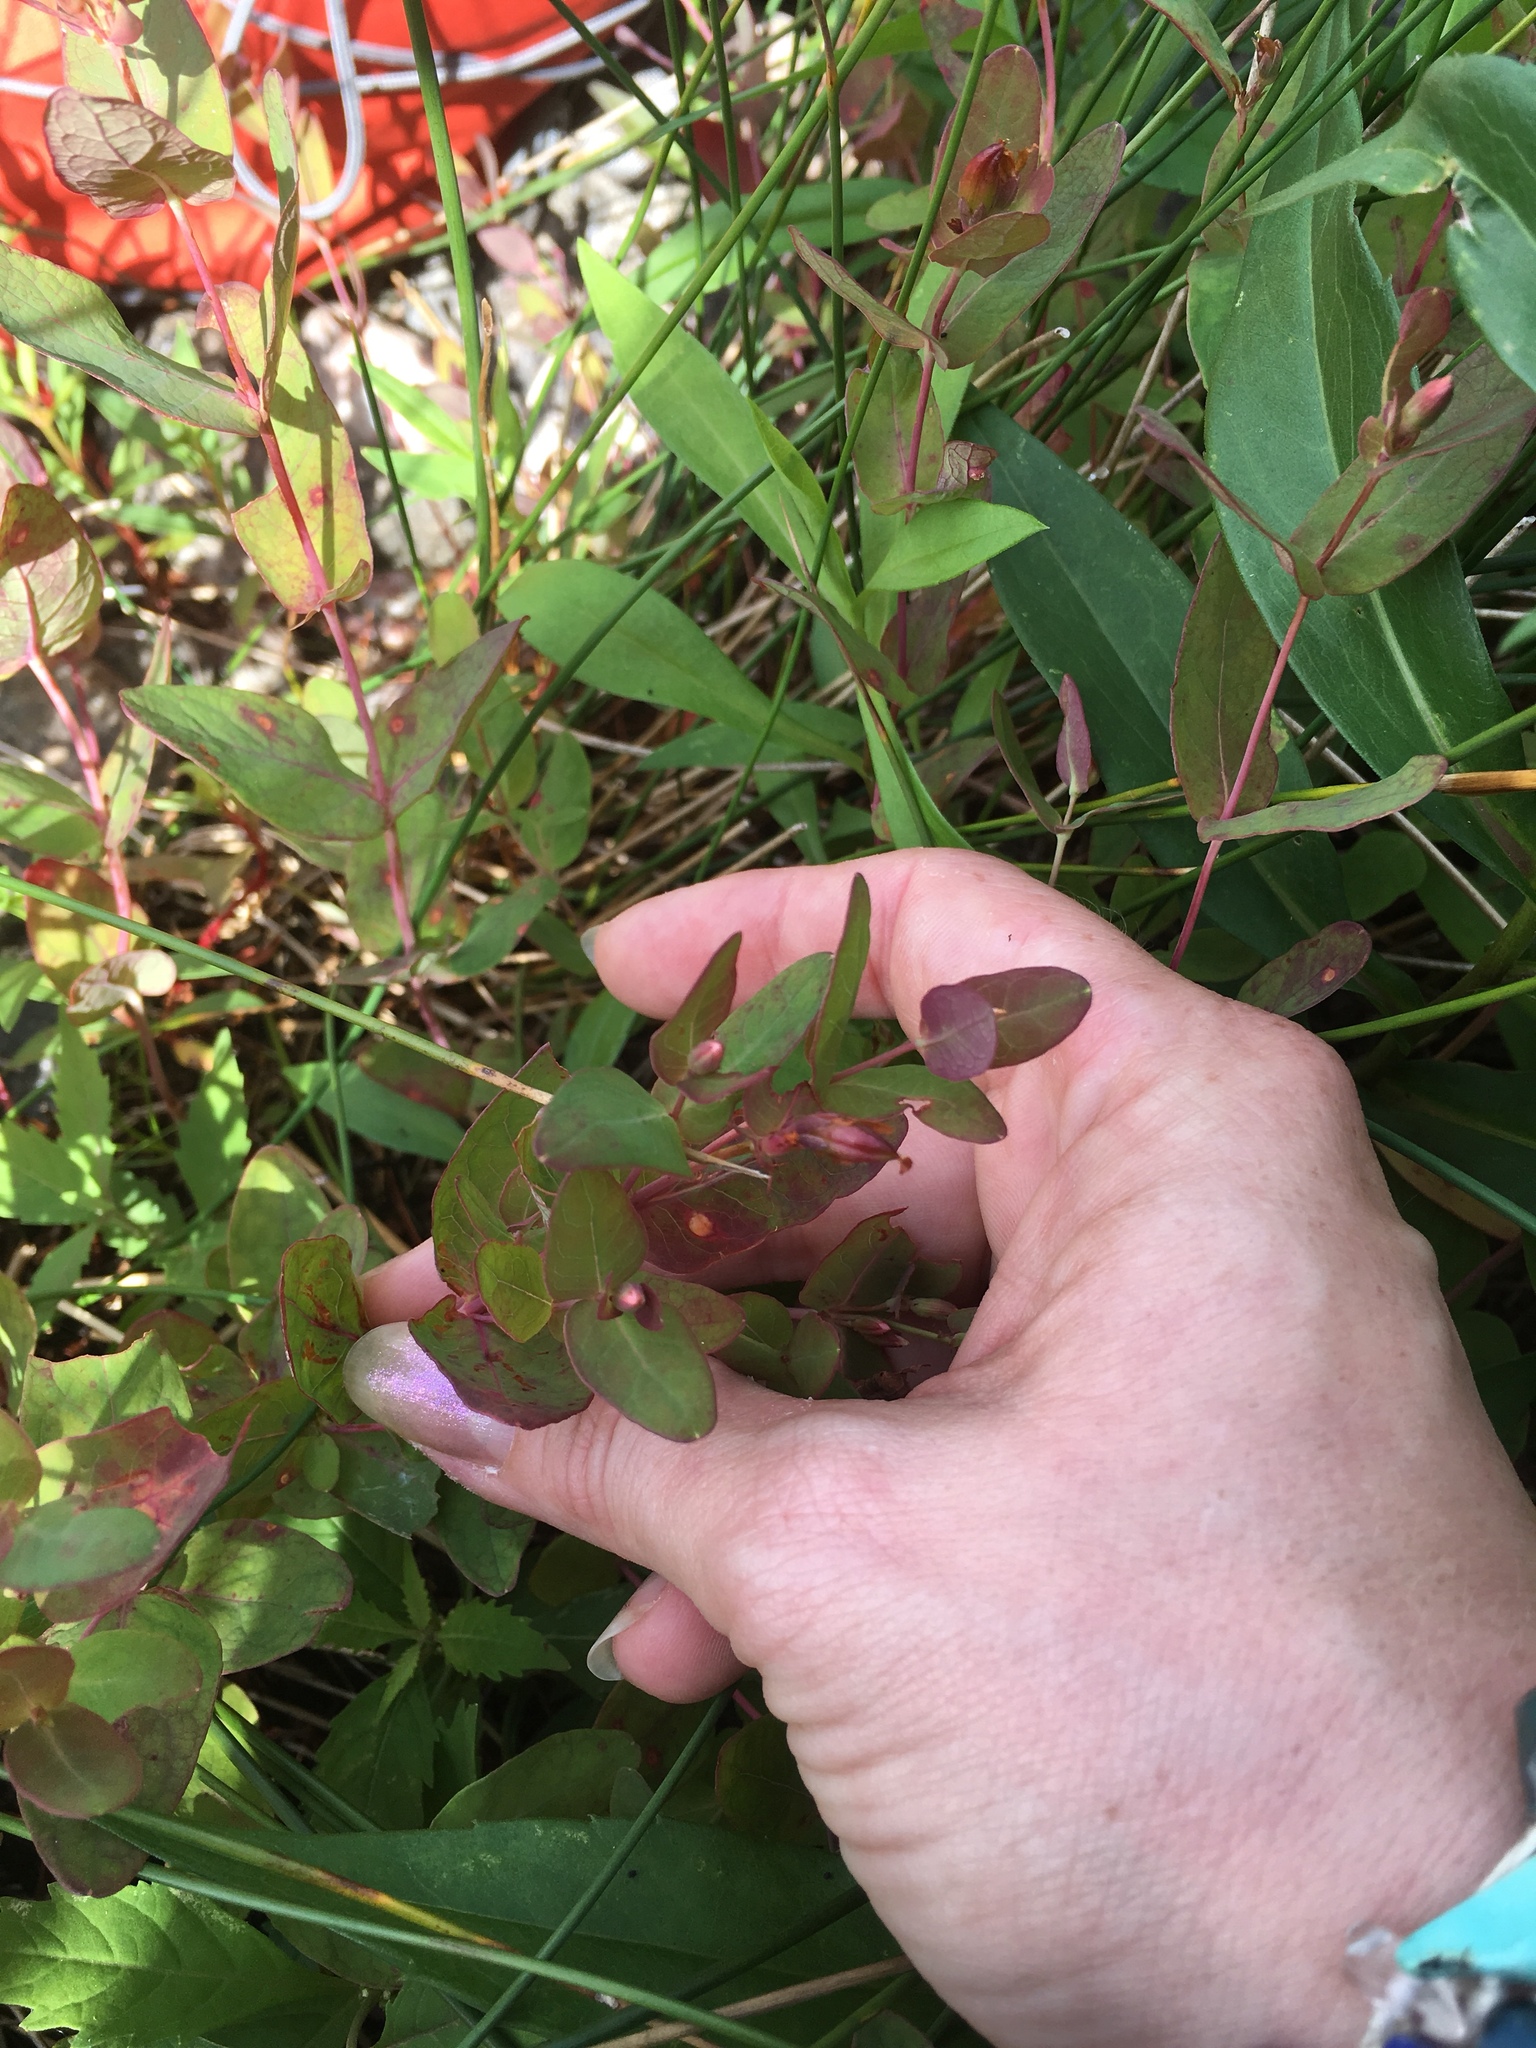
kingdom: Plantae
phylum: Tracheophyta
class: Magnoliopsida
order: Malpighiales
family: Hypericaceae
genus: Triadenum
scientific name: Triadenum fraseri
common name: Fraser's marsh st. johnswort
